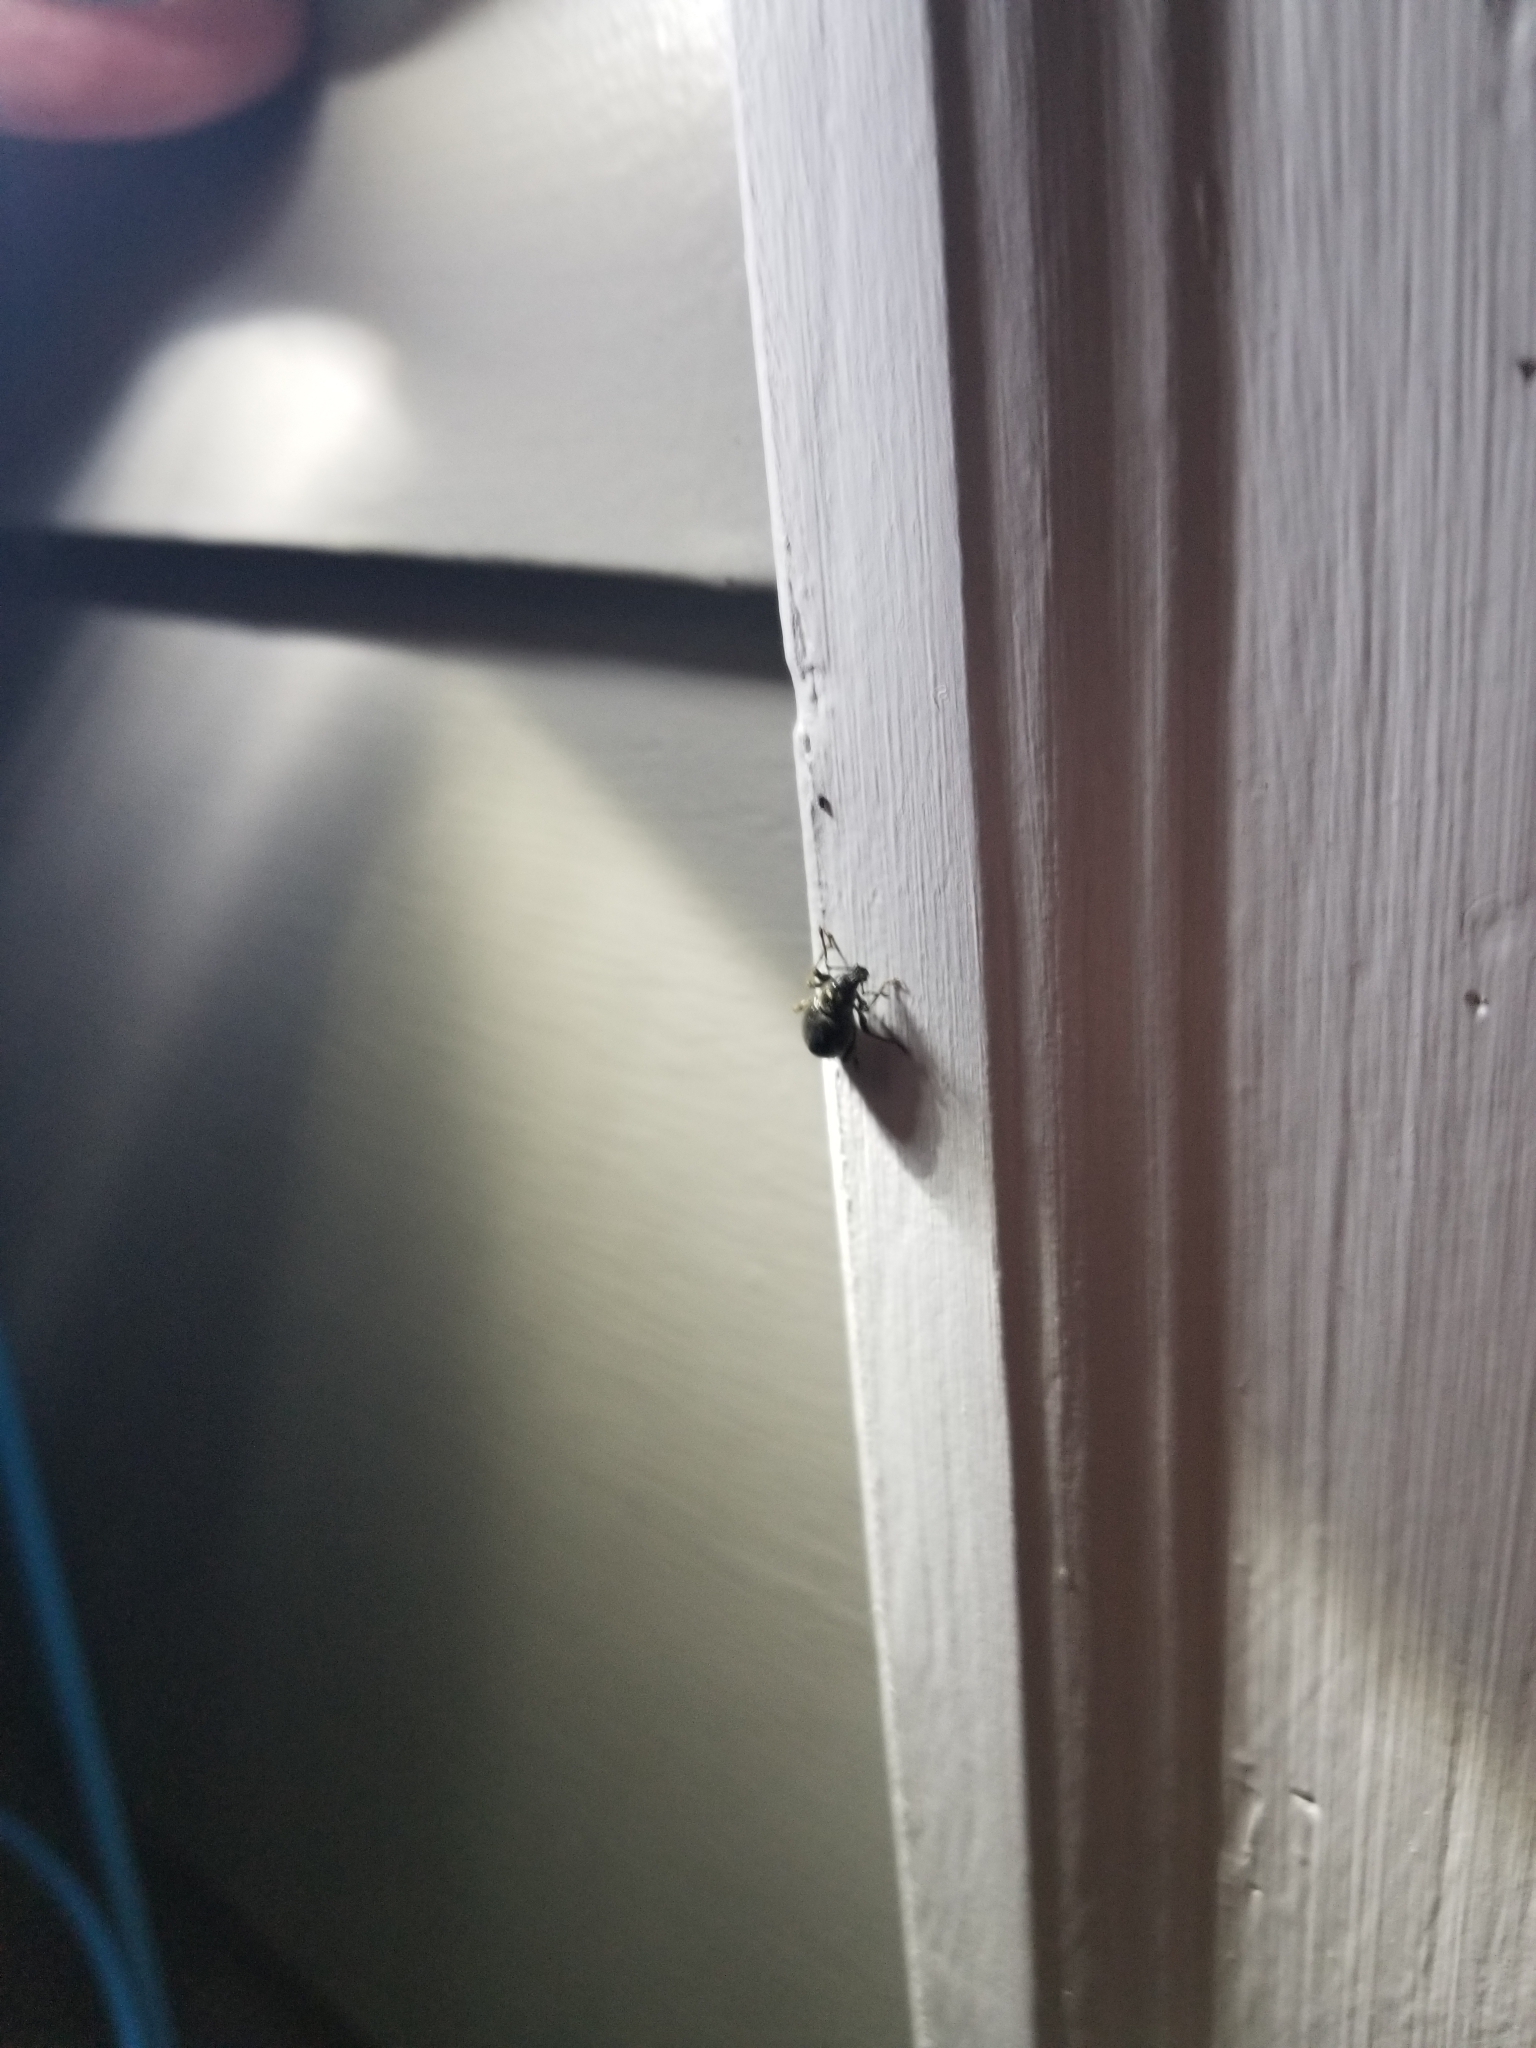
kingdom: Animalia
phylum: Arthropoda
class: Insecta
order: Coleoptera
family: Curculionidae
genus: Otiorhynchus
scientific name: Otiorhynchus meridionalis
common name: Weevil
